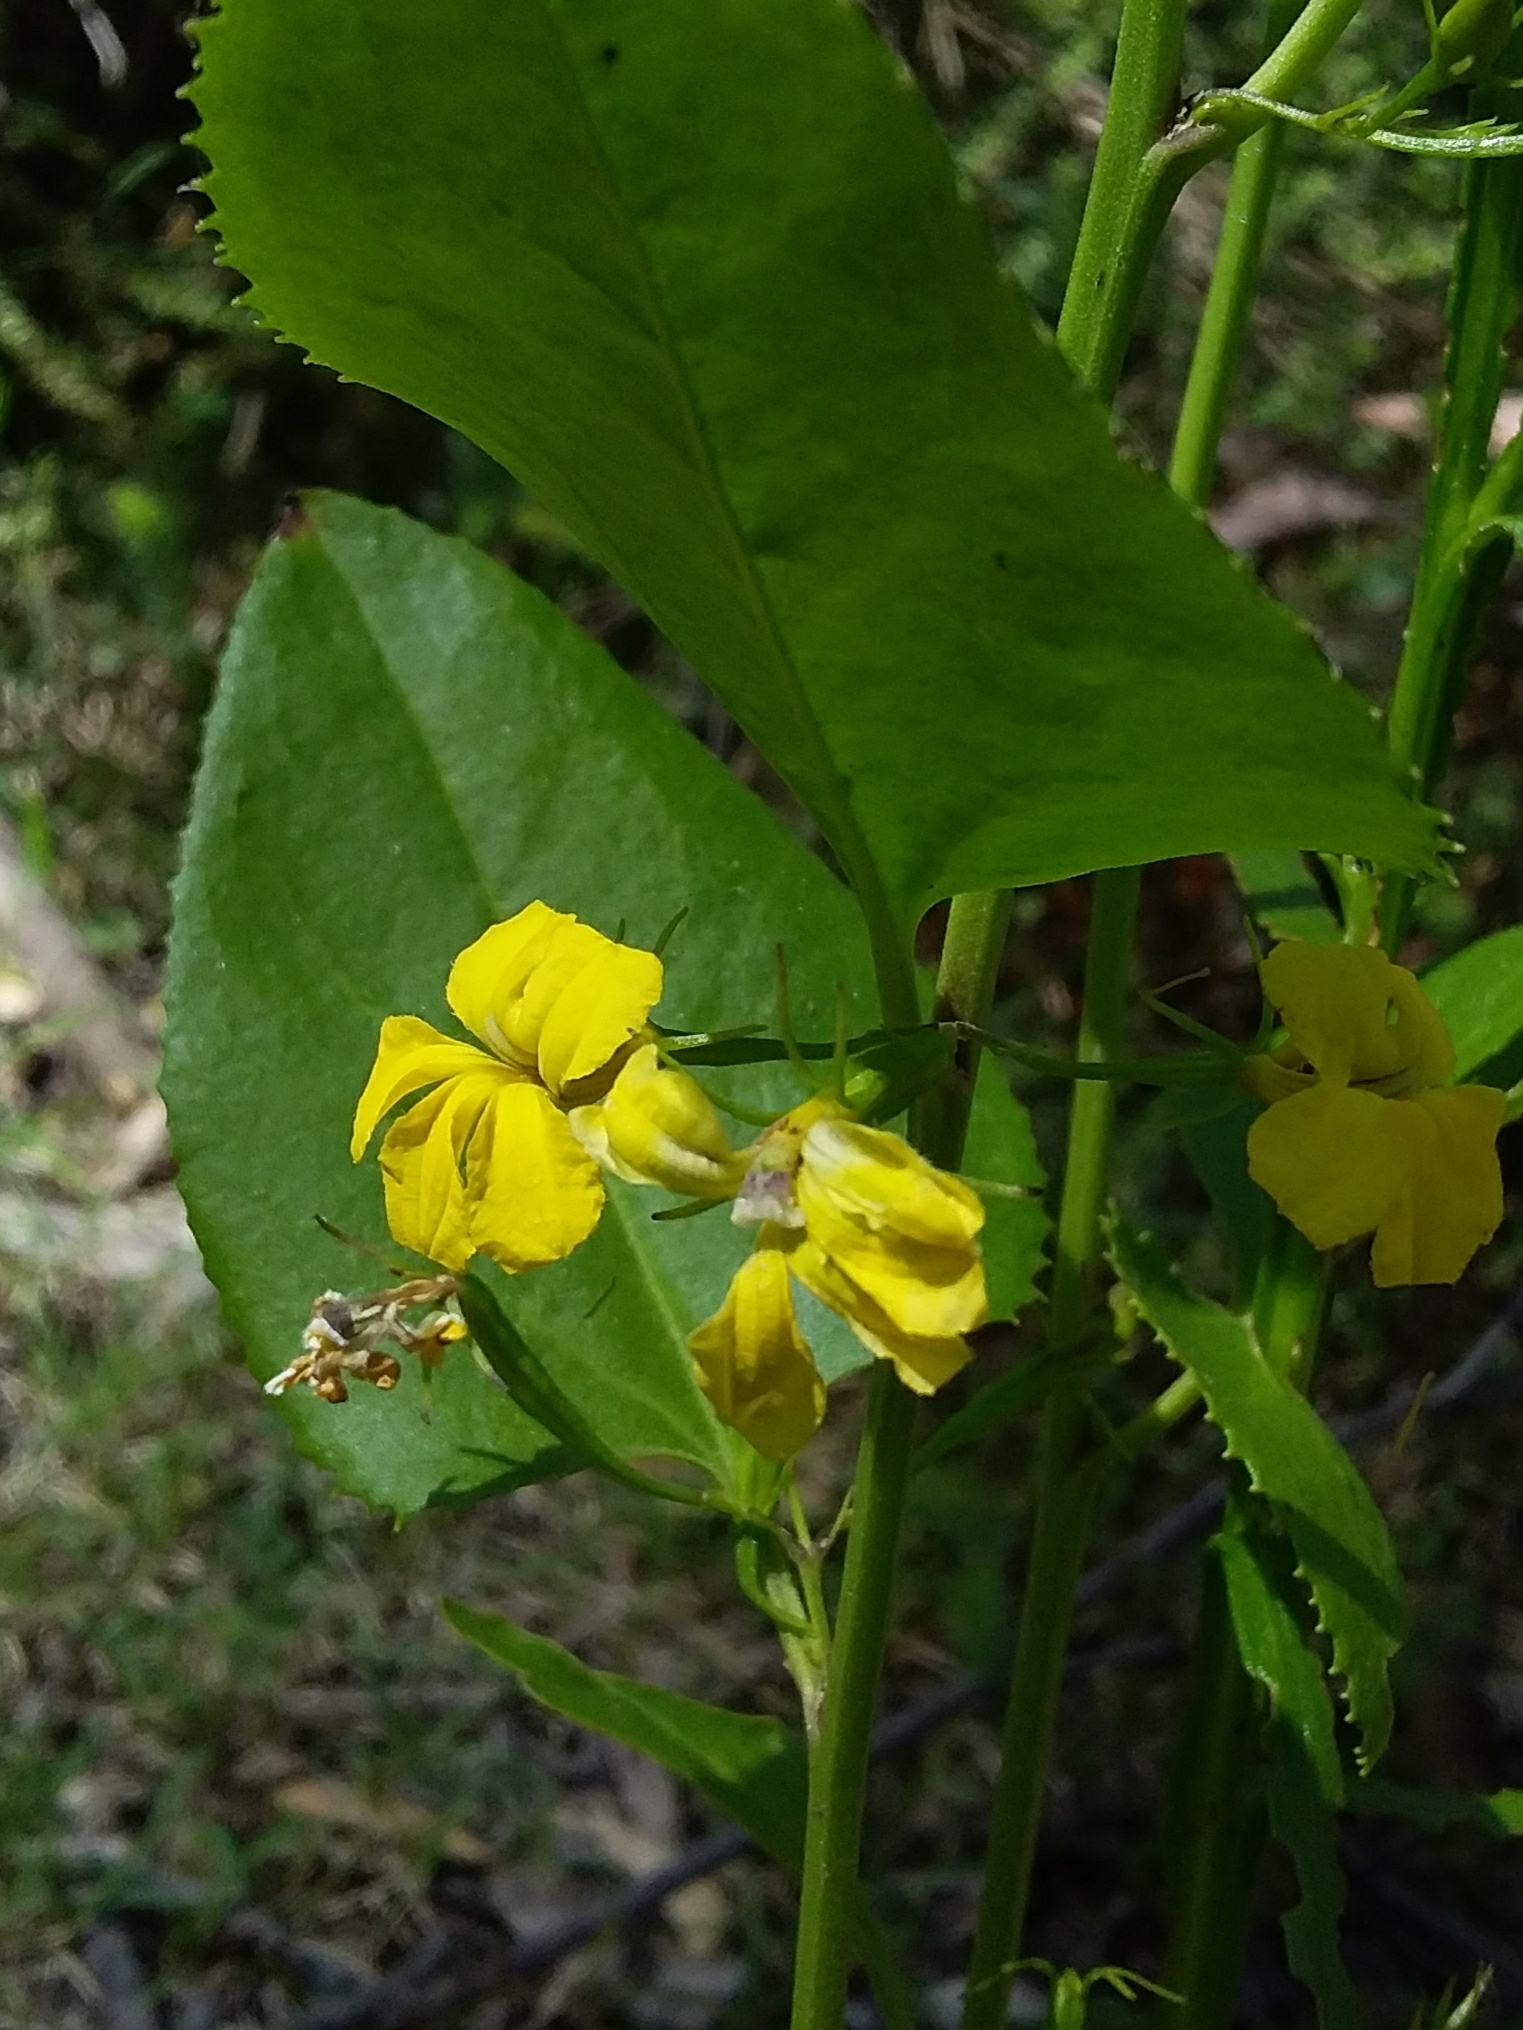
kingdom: Plantae
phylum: Tracheophyta
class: Magnoliopsida
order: Asterales
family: Goodeniaceae
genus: Goodenia
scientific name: Goodenia ovata
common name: Hop goodenia
